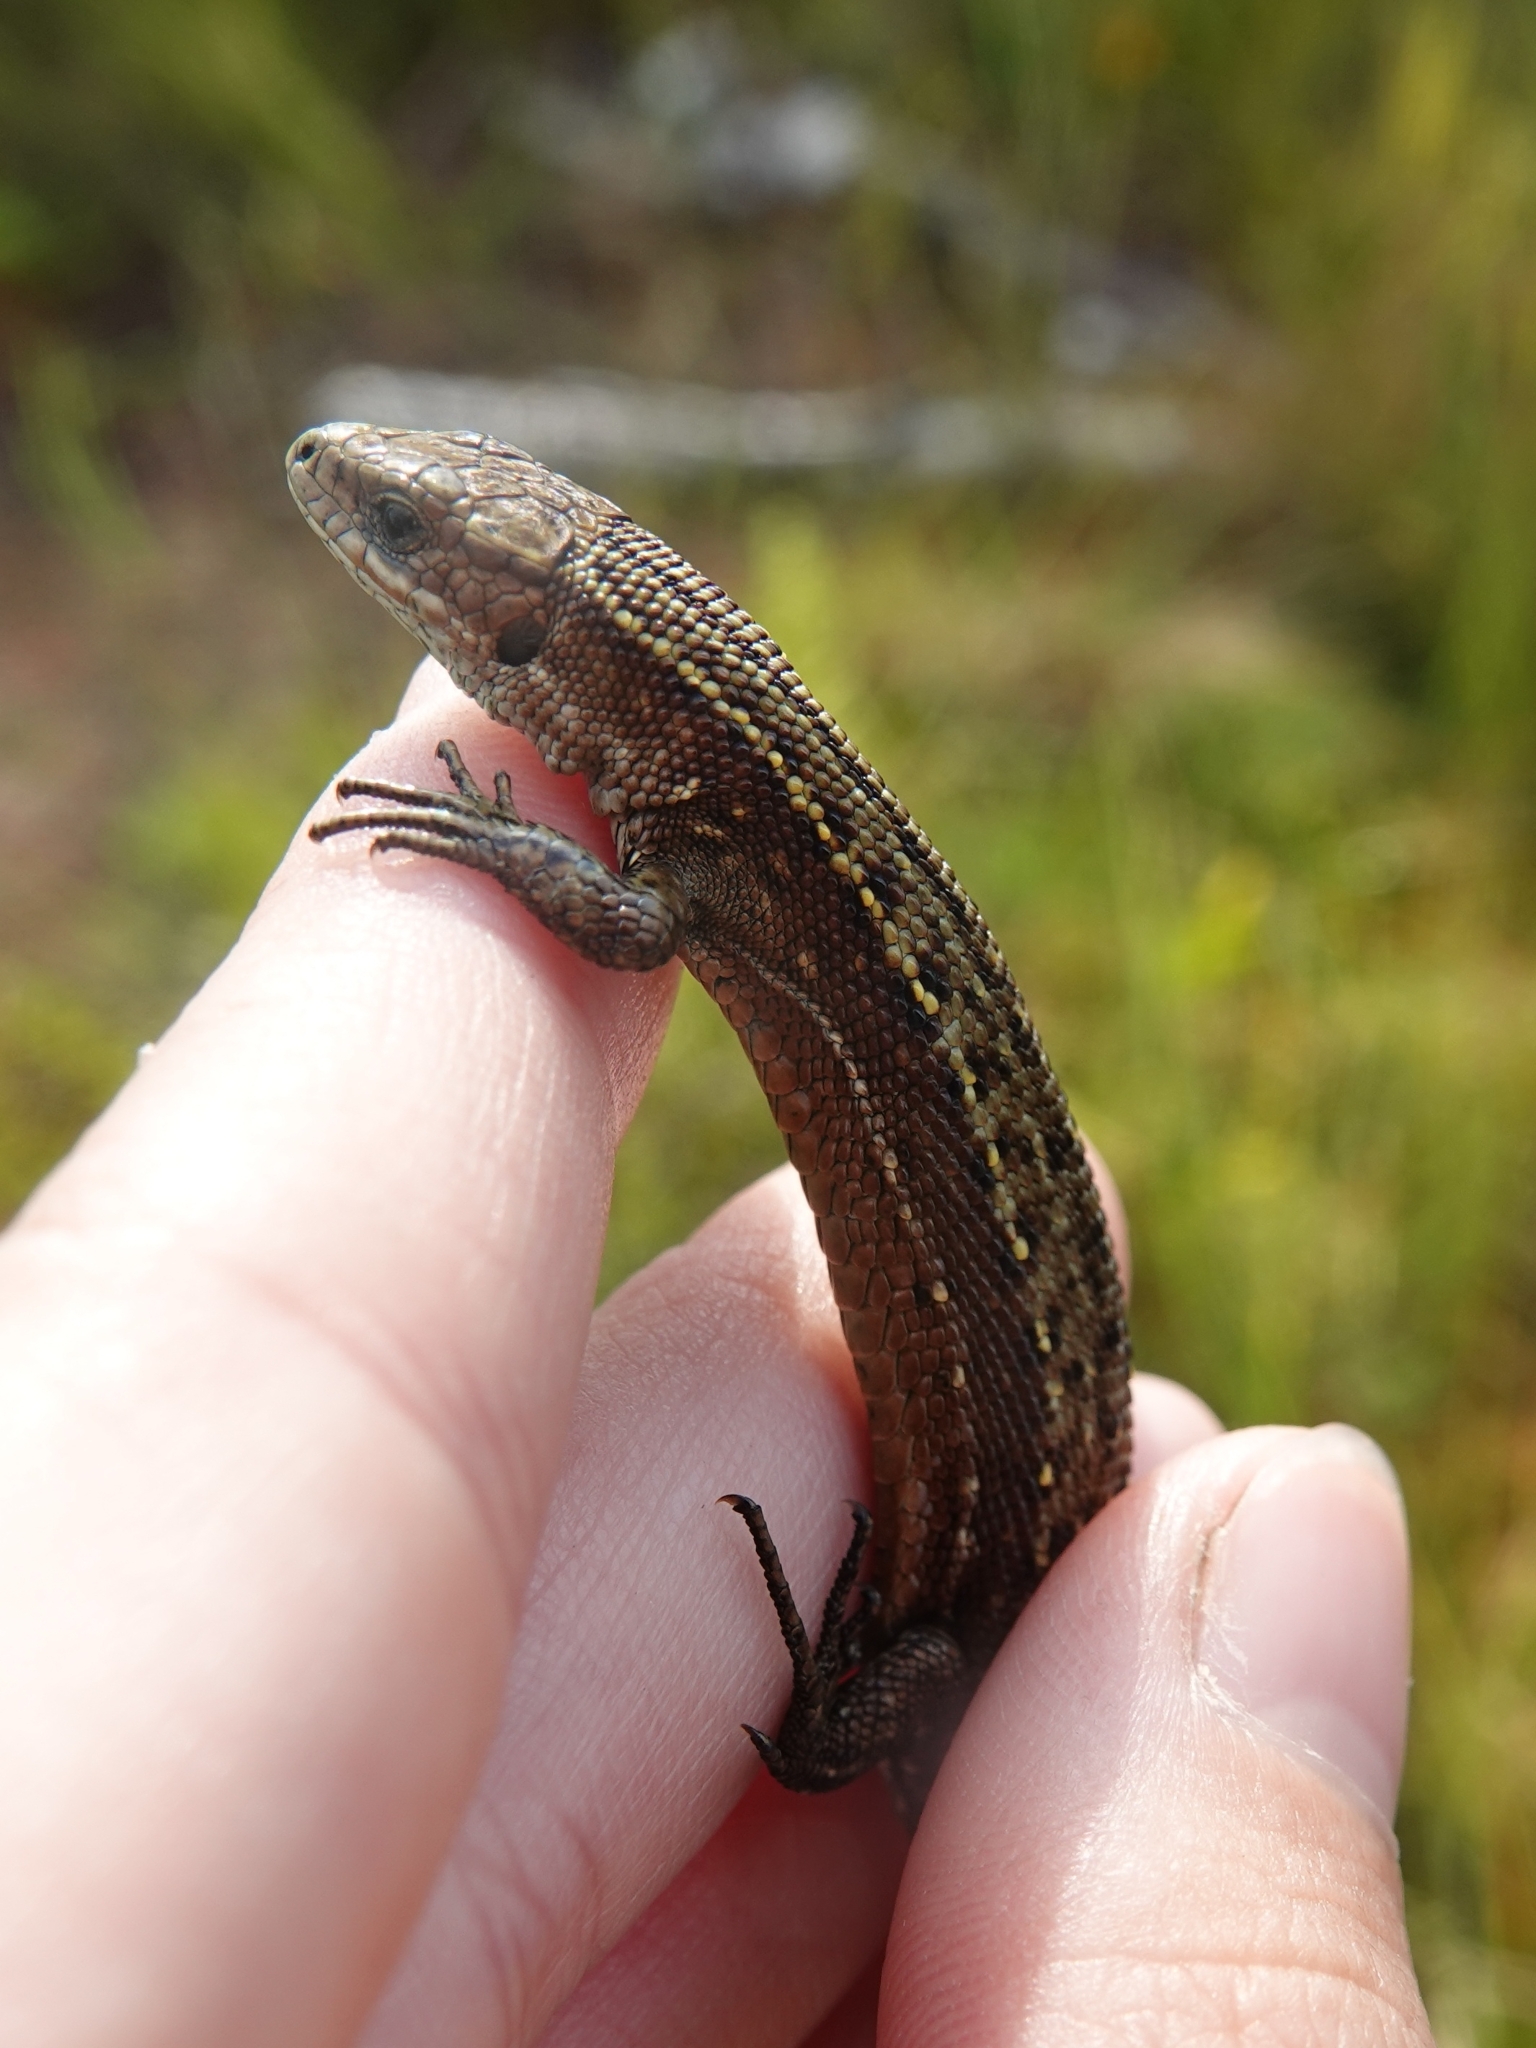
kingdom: Animalia
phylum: Chordata
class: Squamata
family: Lacertidae
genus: Zootoca
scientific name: Zootoca vivipara
